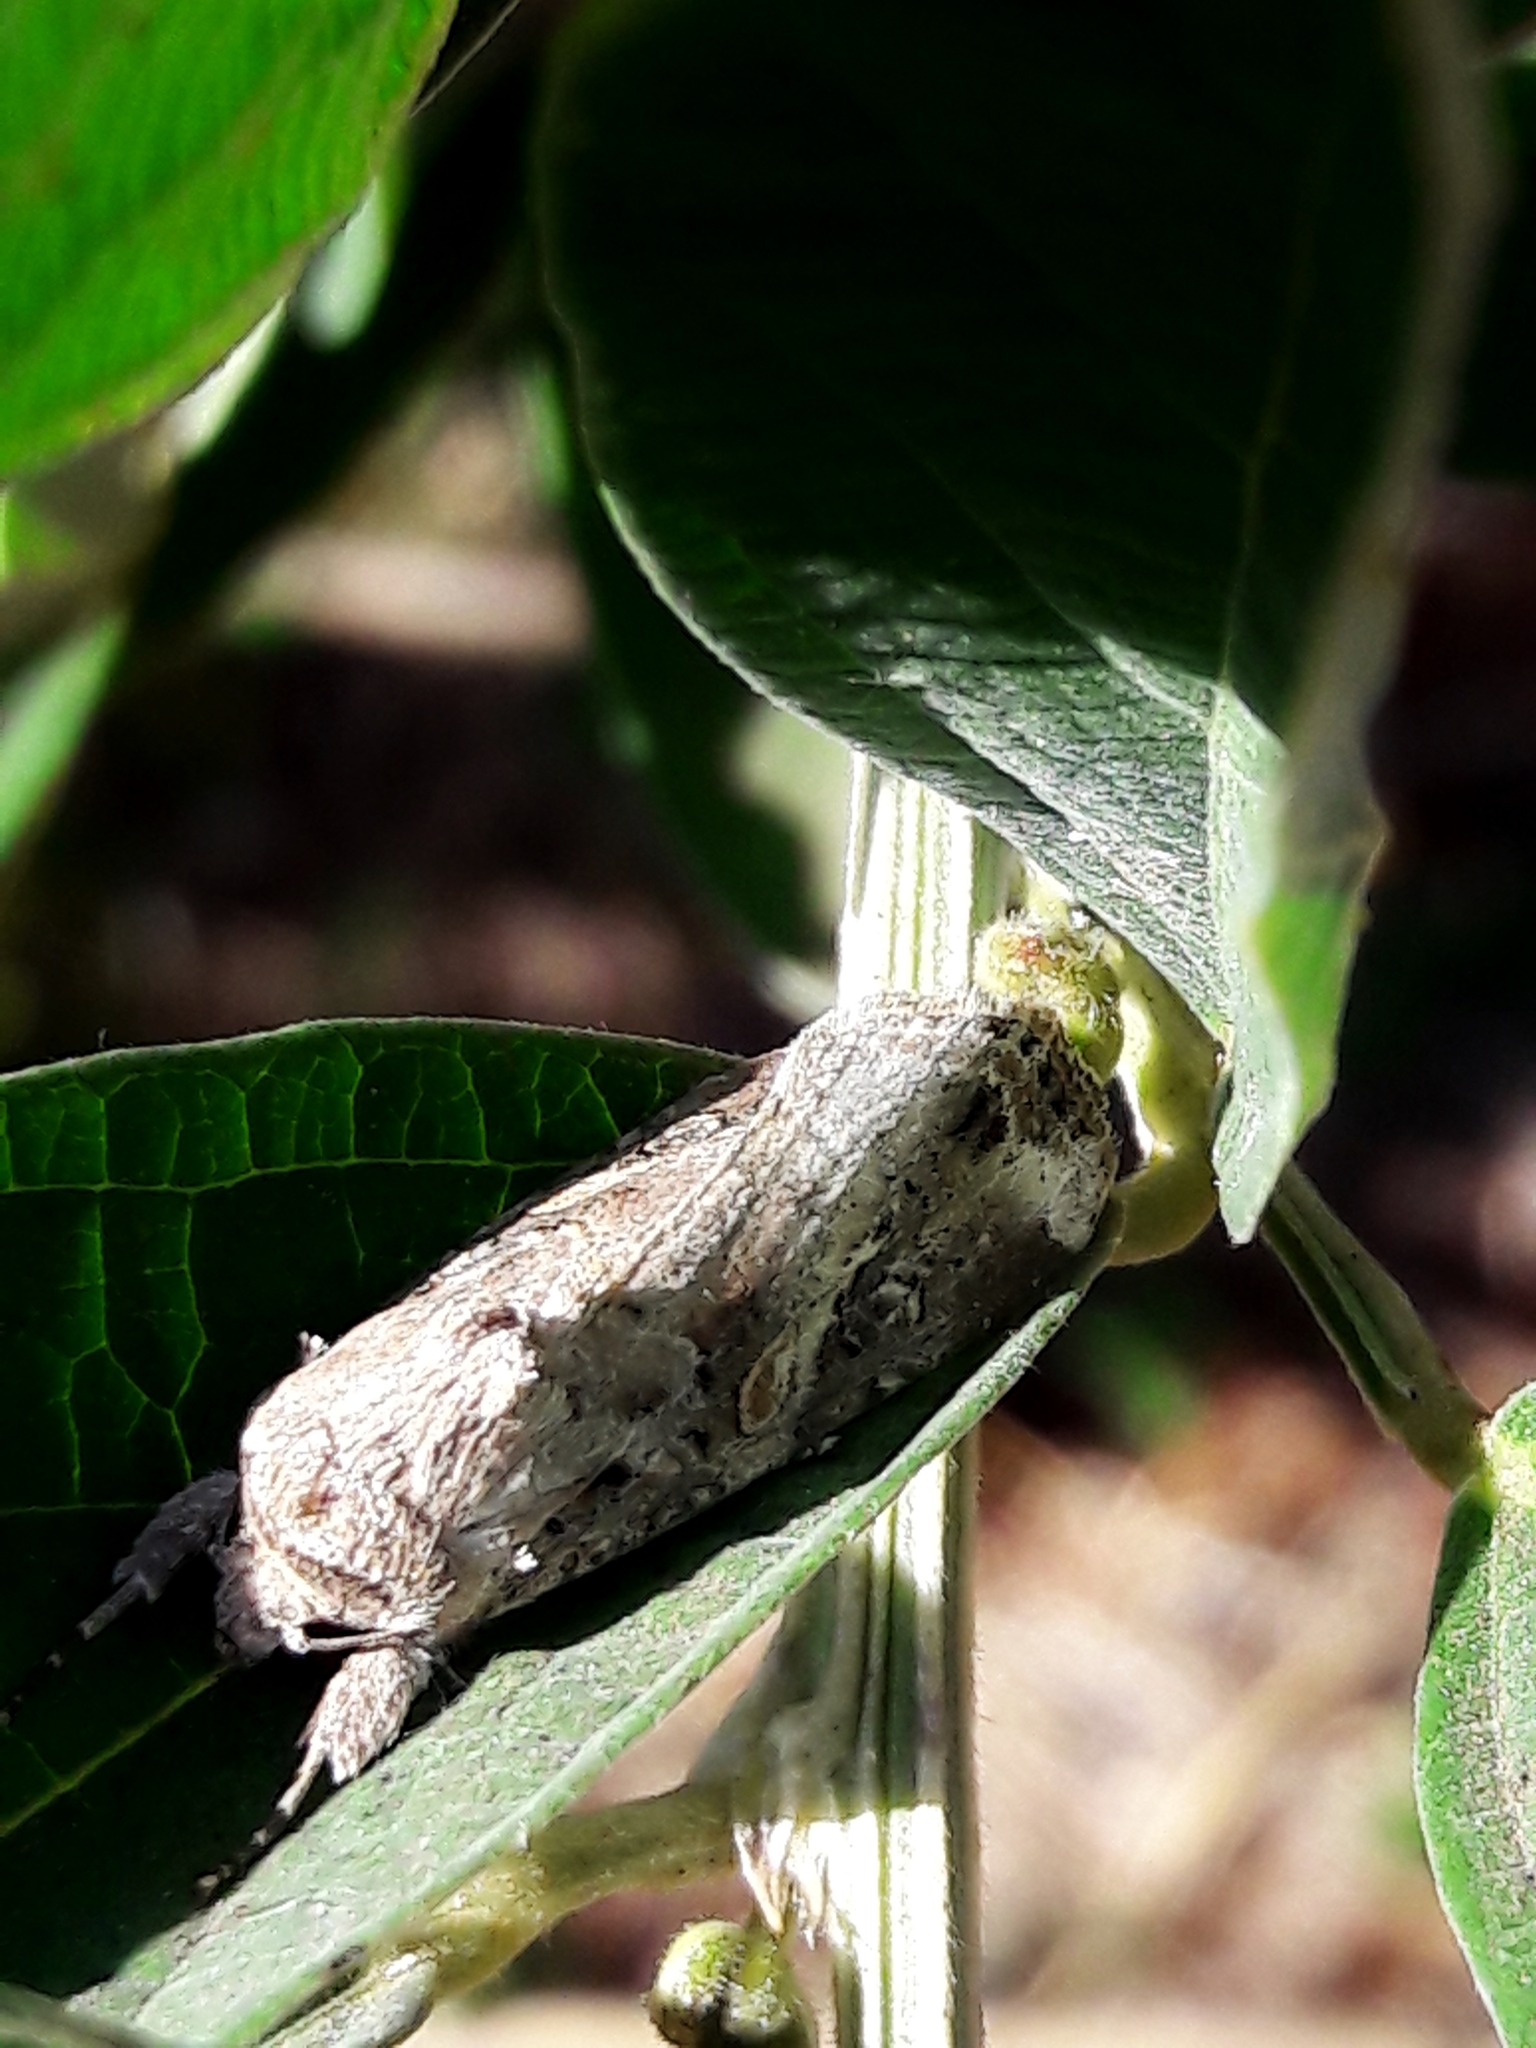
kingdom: Animalia
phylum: Arthropoda
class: Insecta
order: Lepidoptera
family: Noctuidae
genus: Spodoptera
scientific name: Spodoptera frugiperda
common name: Fall armyworm
